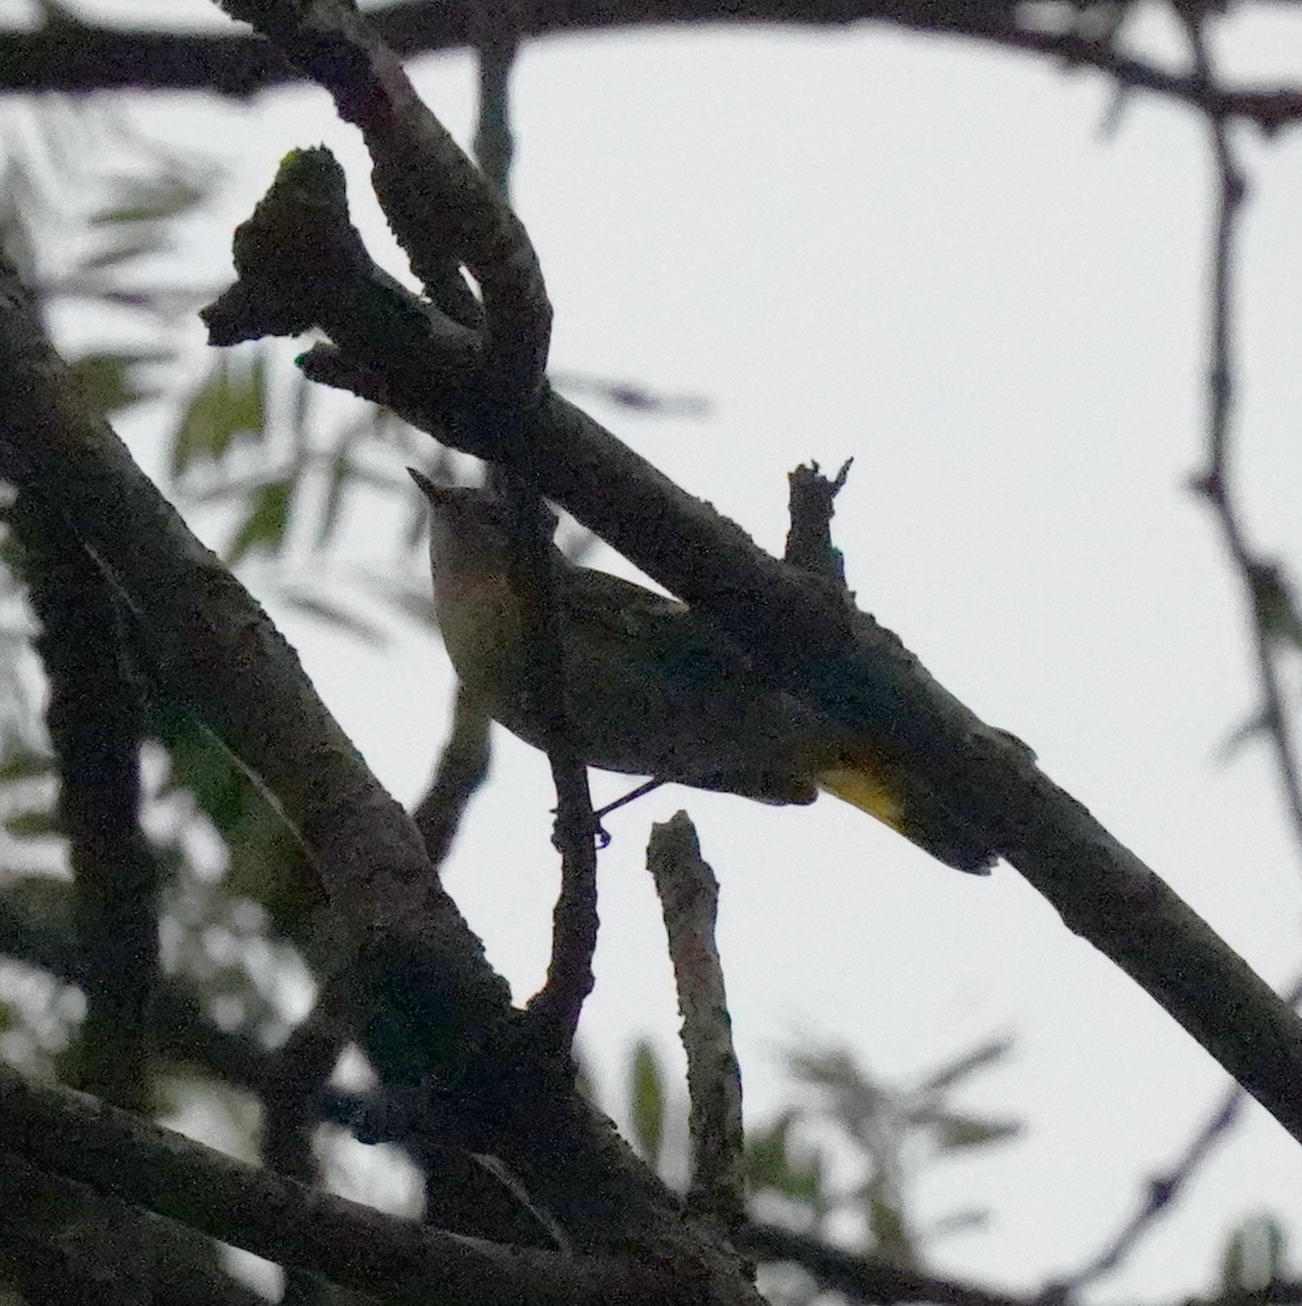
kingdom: Animalia
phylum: Chordata
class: Aves
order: Passeriformes
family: Parulidae
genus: Setophaga
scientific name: Setophaga ruticilla
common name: American redstart
